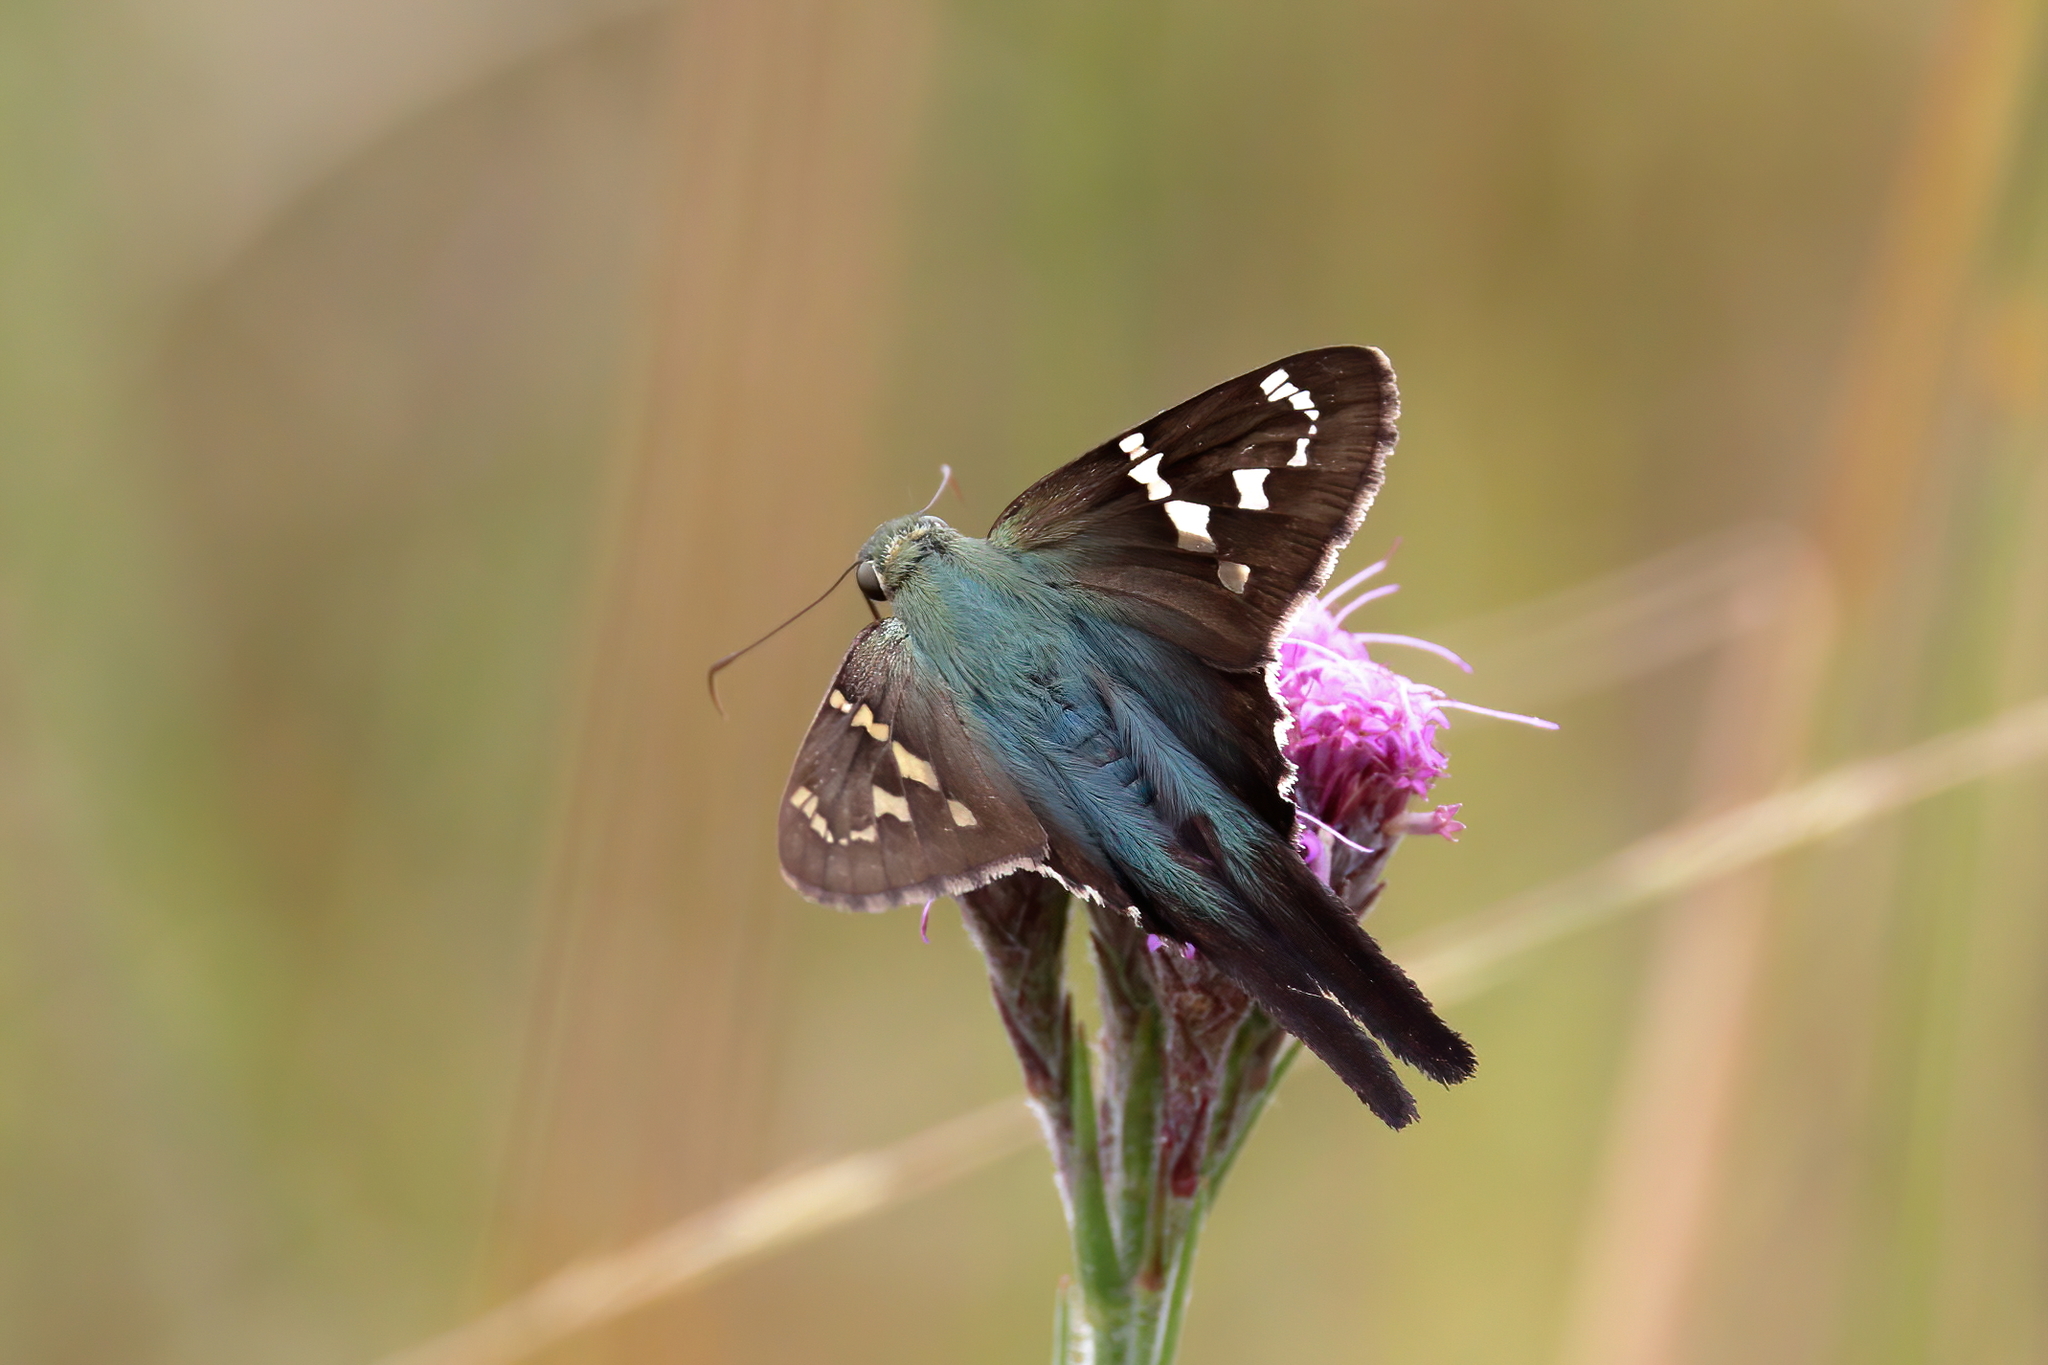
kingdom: Animalia
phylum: Arthropoda
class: Insecta
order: Lepidoptera
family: Hesperiidae
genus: Urbanus
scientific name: Urbanus proteus
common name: Long-tailed skipper
